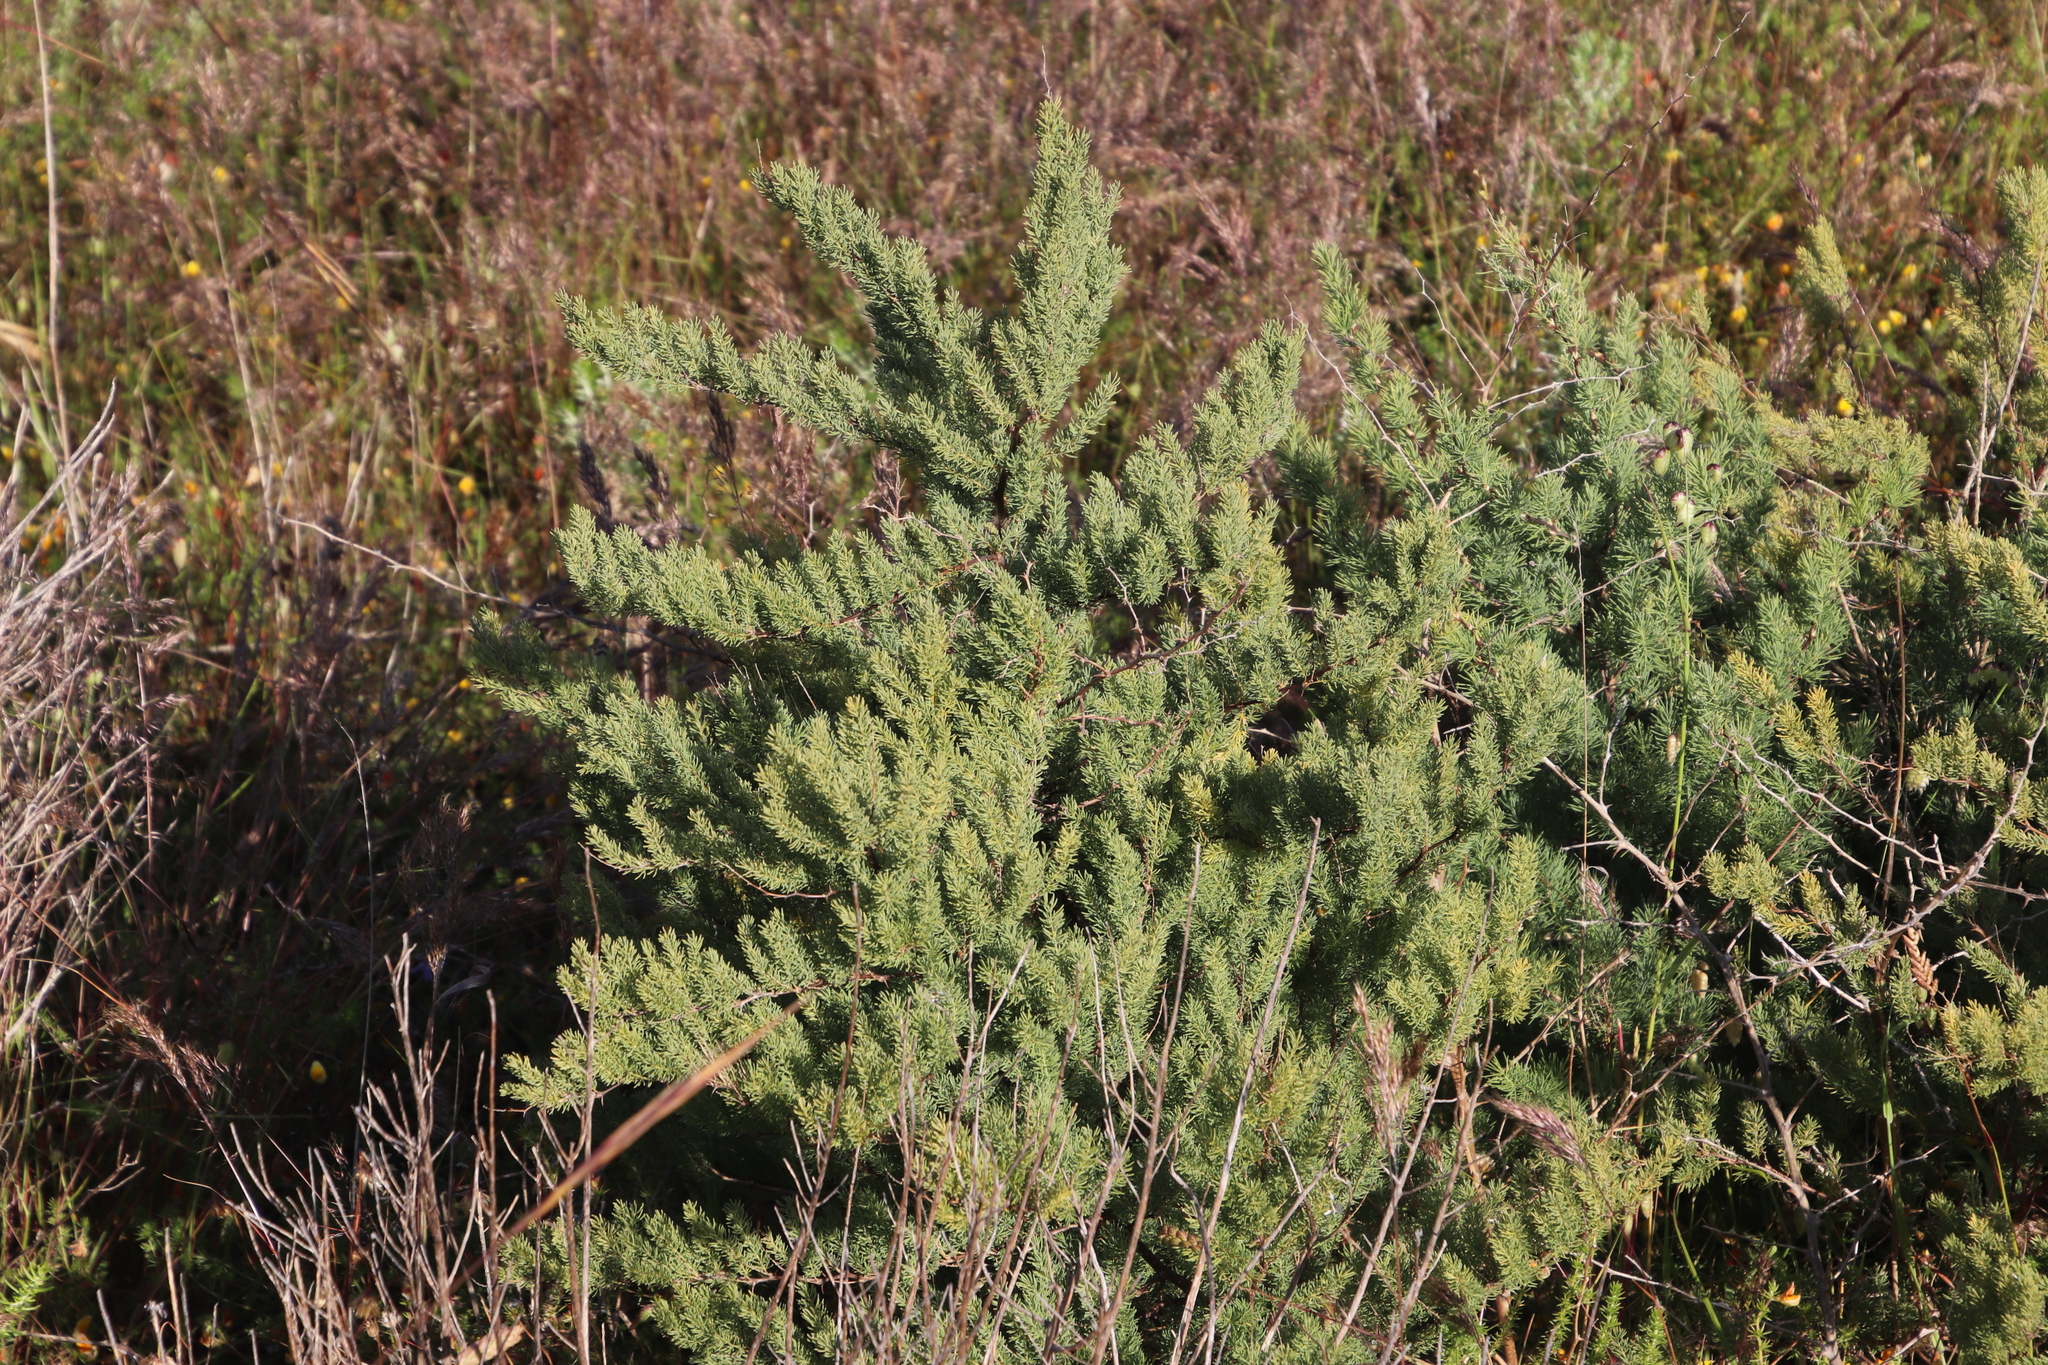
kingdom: Plantae
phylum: Tracheophyta
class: Liliopsida
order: Asparagales
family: Asparagaceae
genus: Asparagus
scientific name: Asparagus rubicundus
